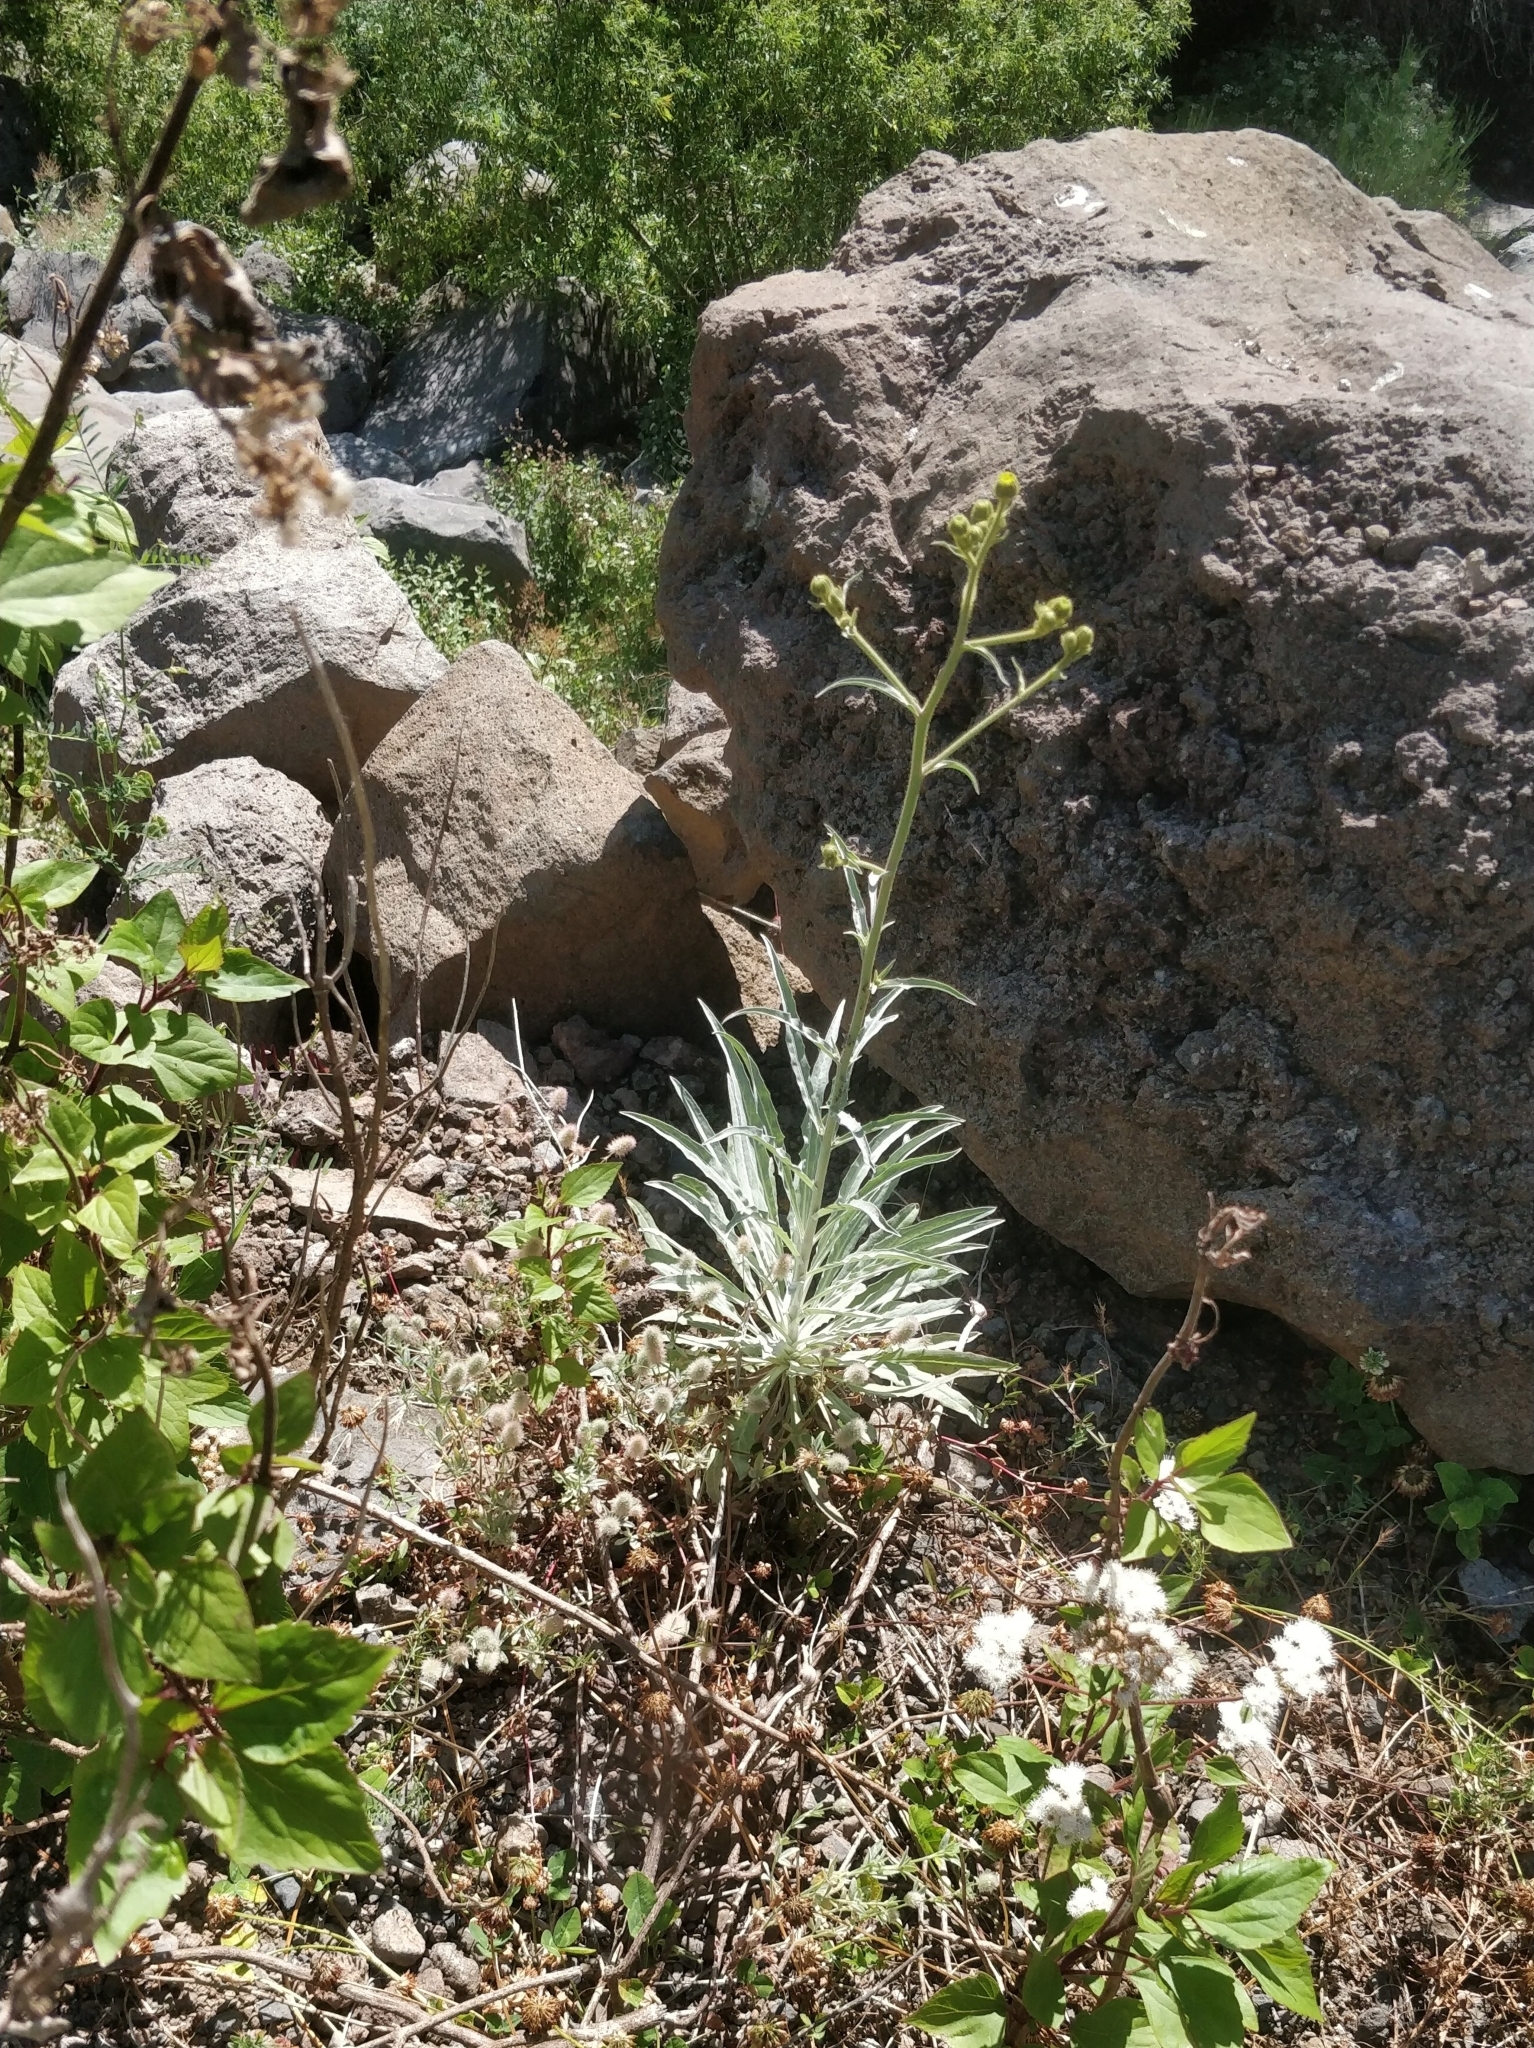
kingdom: Plantae
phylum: Tracheophyta
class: Magnoliopsida
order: Asterales
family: Asteraceae
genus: Andryala
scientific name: Andryala glandulosa
